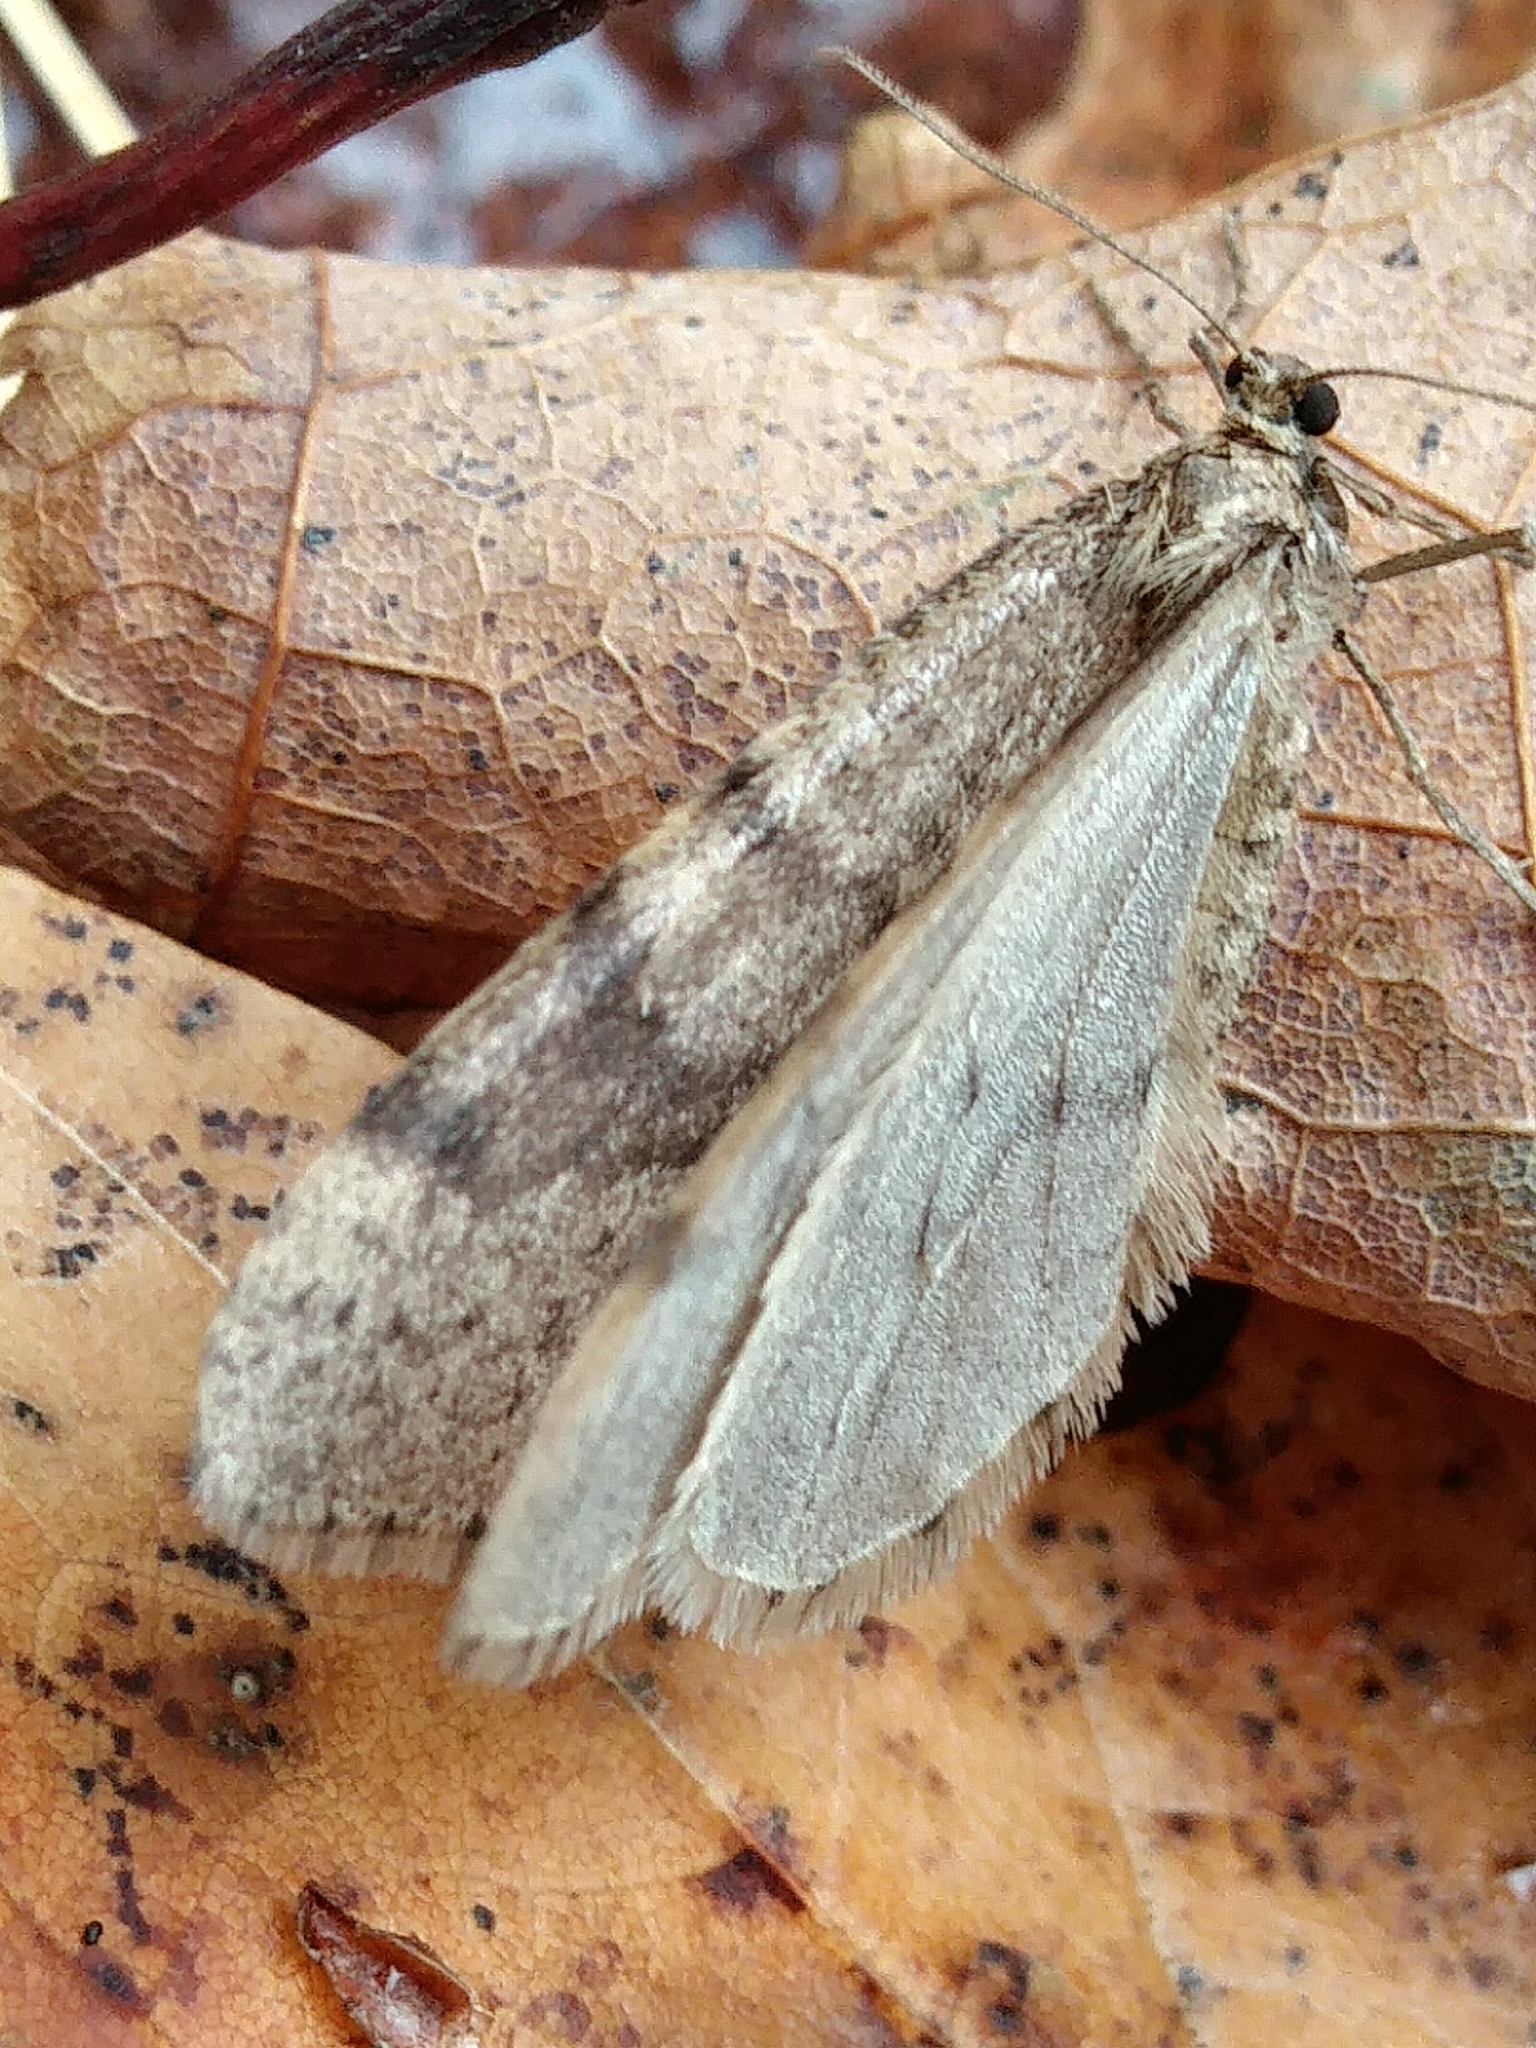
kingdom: Animalia
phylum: Arthropoda
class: Insecta
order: Lepidoptera
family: Geometridae
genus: Operophtera
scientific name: Operophtera bruceata
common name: Bruce spanworm
